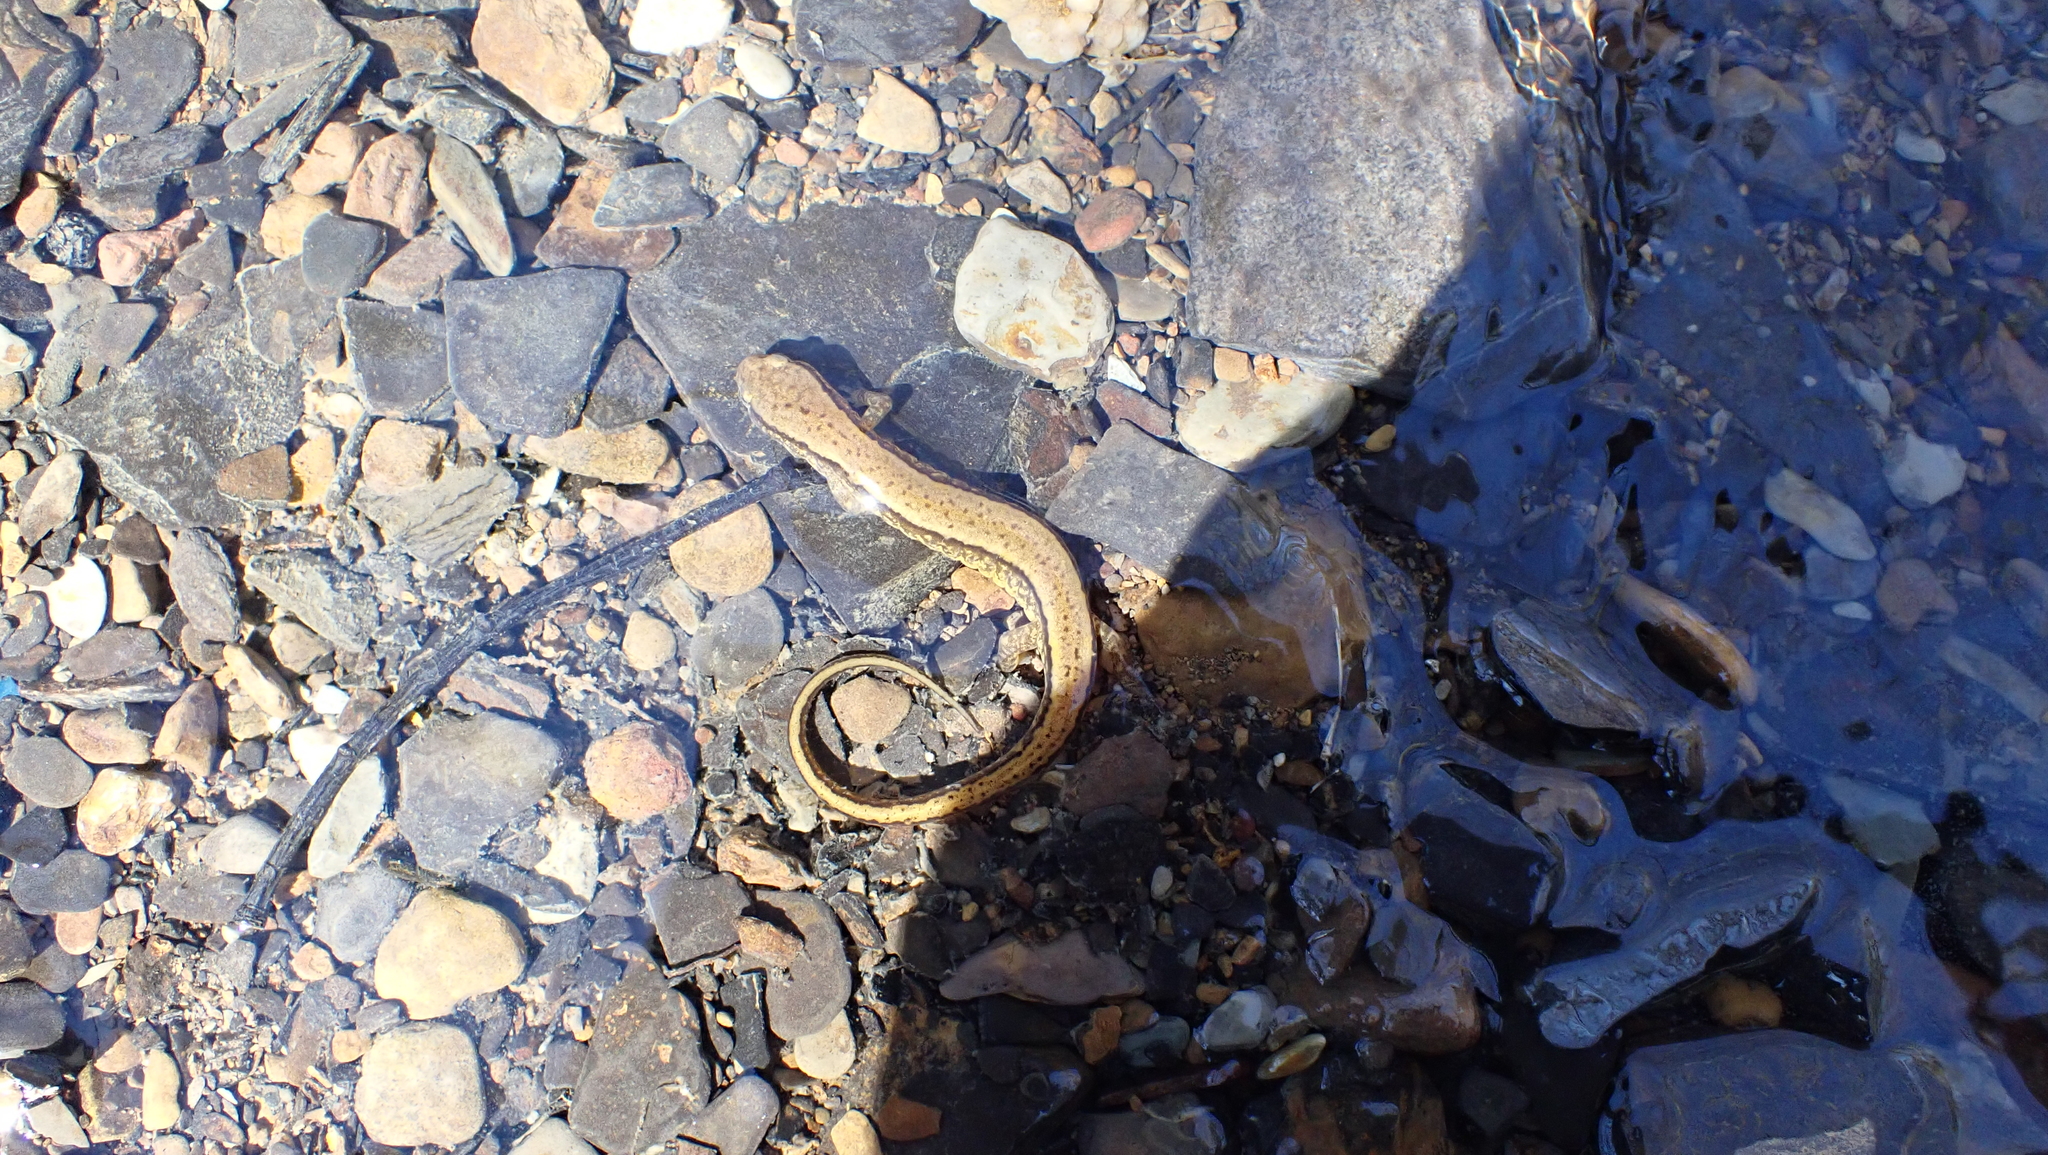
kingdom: Animalia
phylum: Chordata
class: Amphibia
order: Caudata
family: Plethodontidae
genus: Eurycea
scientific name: Eurycea cirrigera
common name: Southern two-lined salamander
